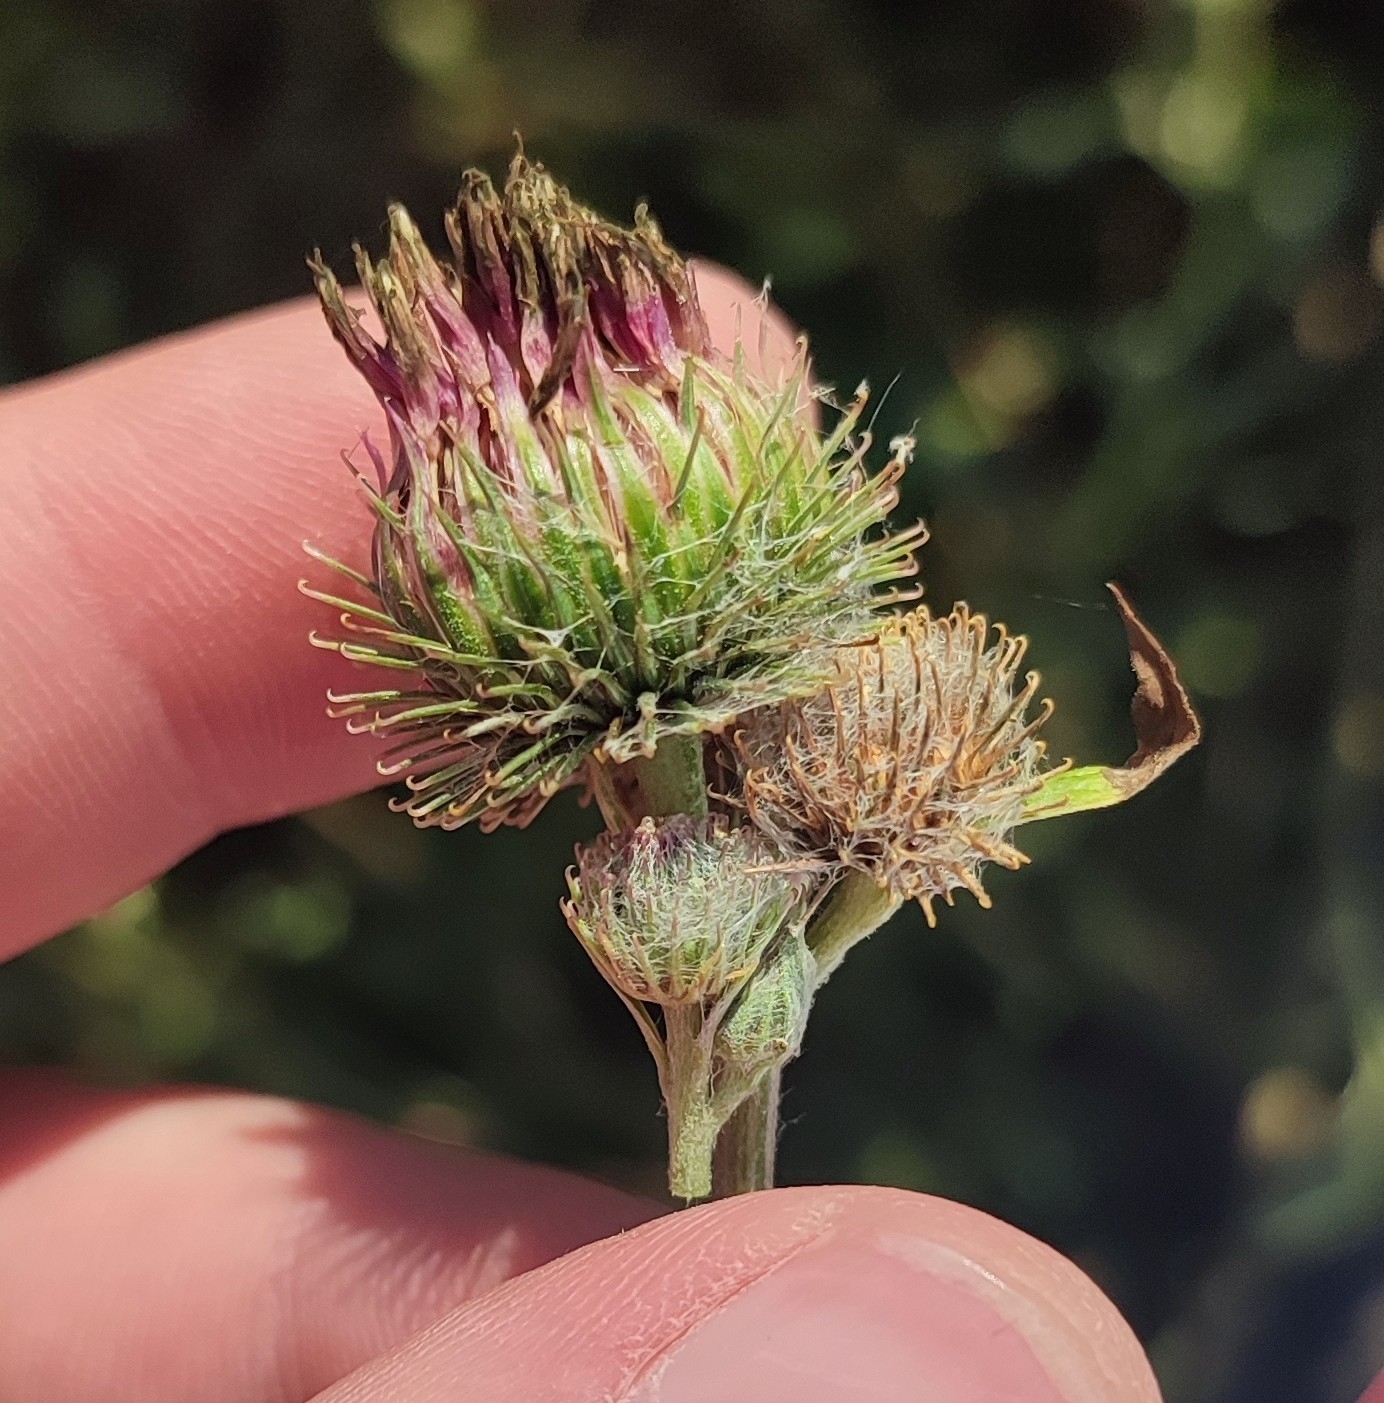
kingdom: Plantae
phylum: Tracheophyta
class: Magnoliopsida
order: Asterales
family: Asteraceae
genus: Arctium
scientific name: Arctium
